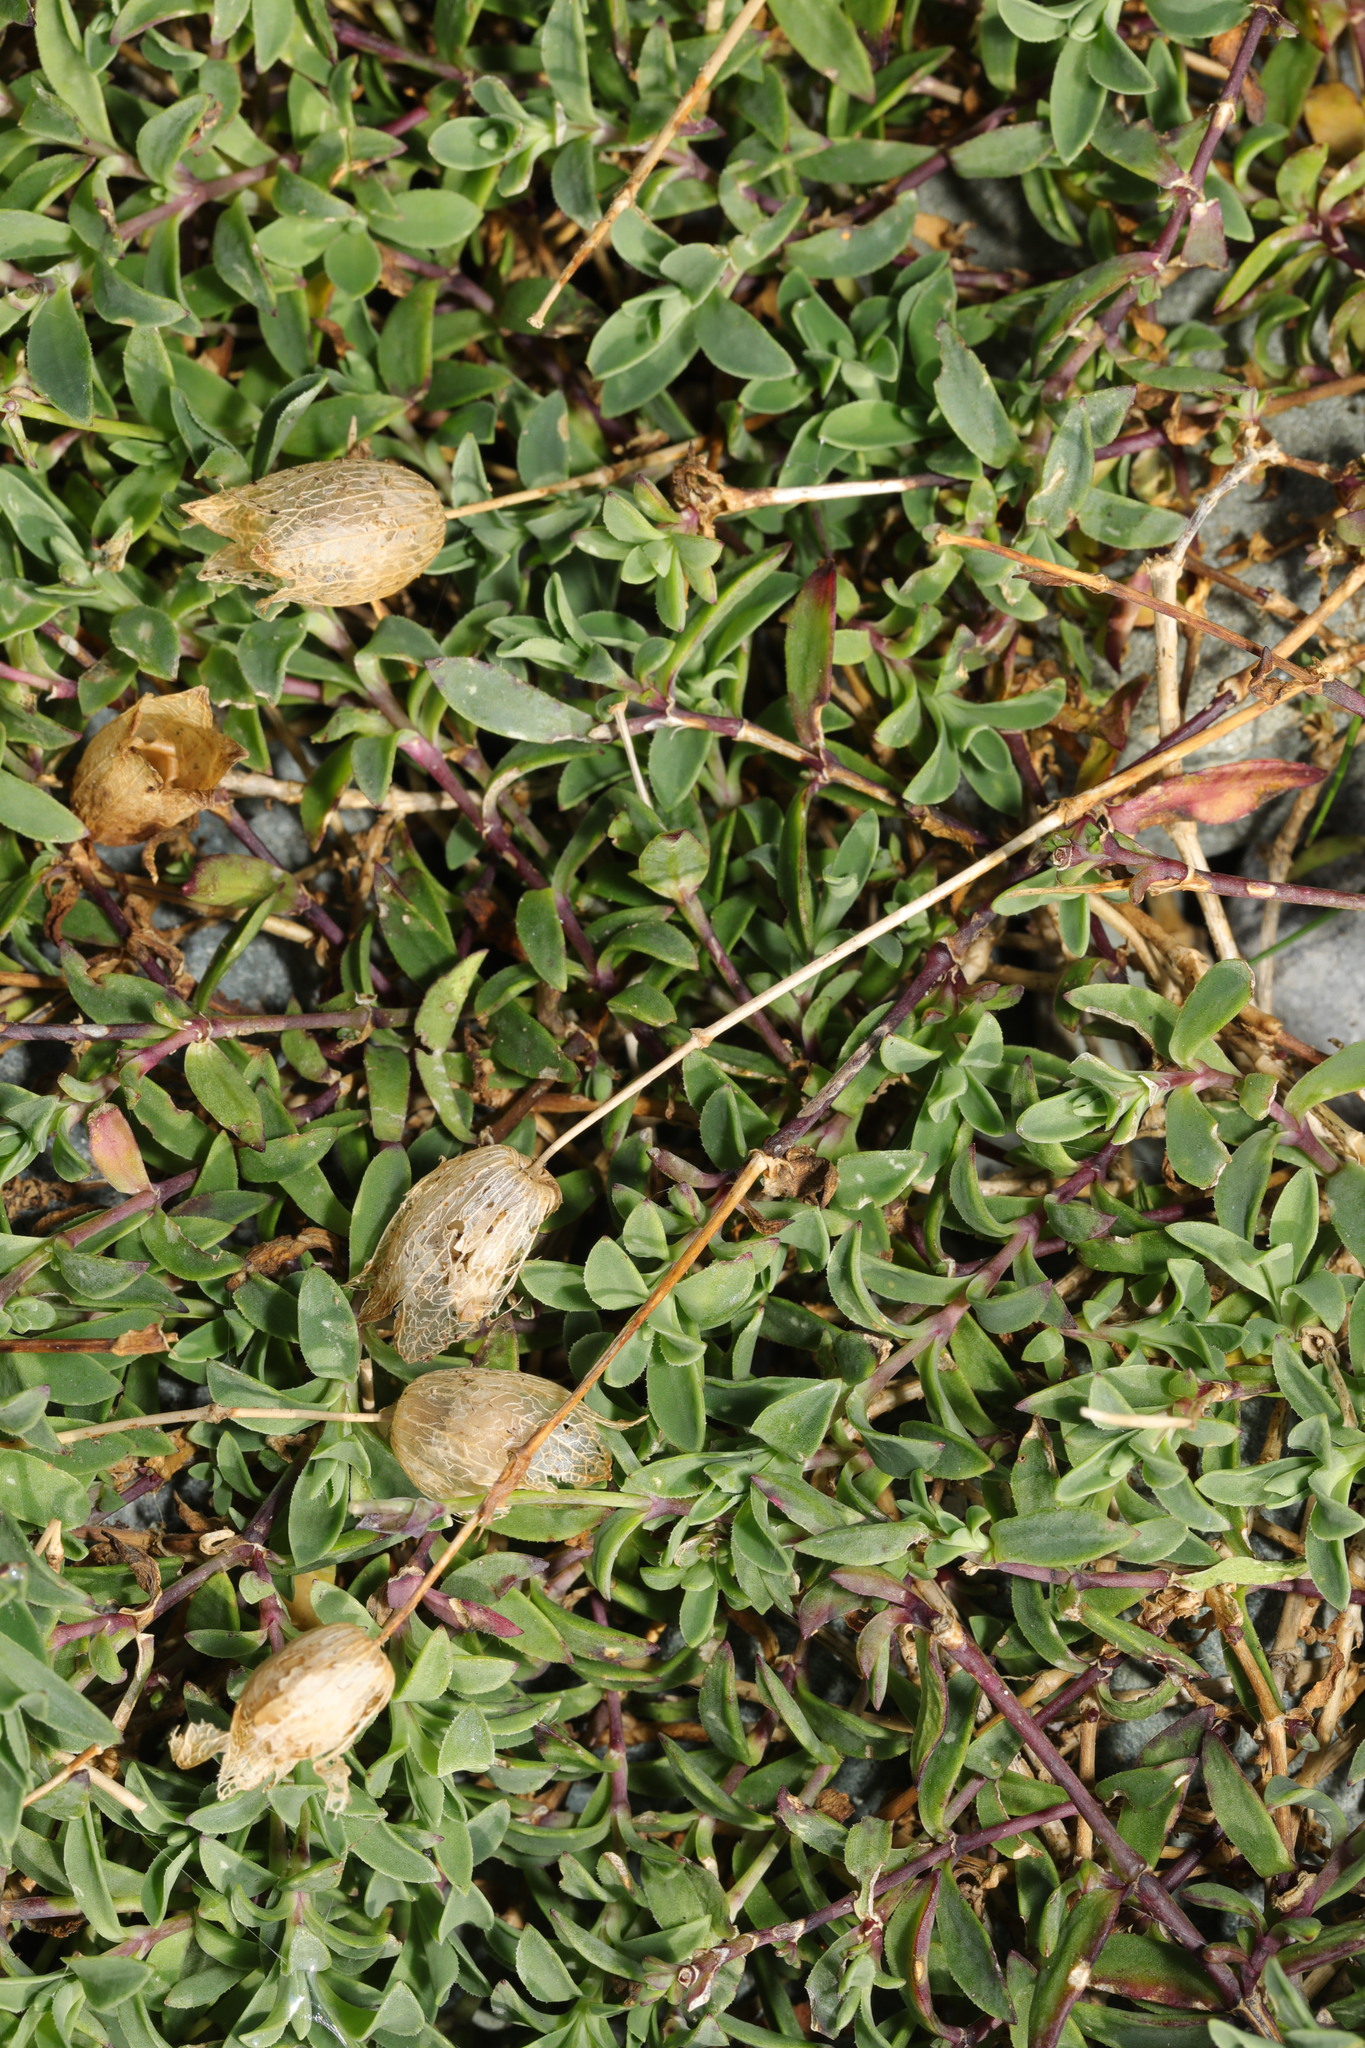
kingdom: Plantae
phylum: Tracheophyta
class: Magnoliopsida
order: Caryophyllales
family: Caryophyllaceae
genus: Silene
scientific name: Silene uniflora
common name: Sea campion
